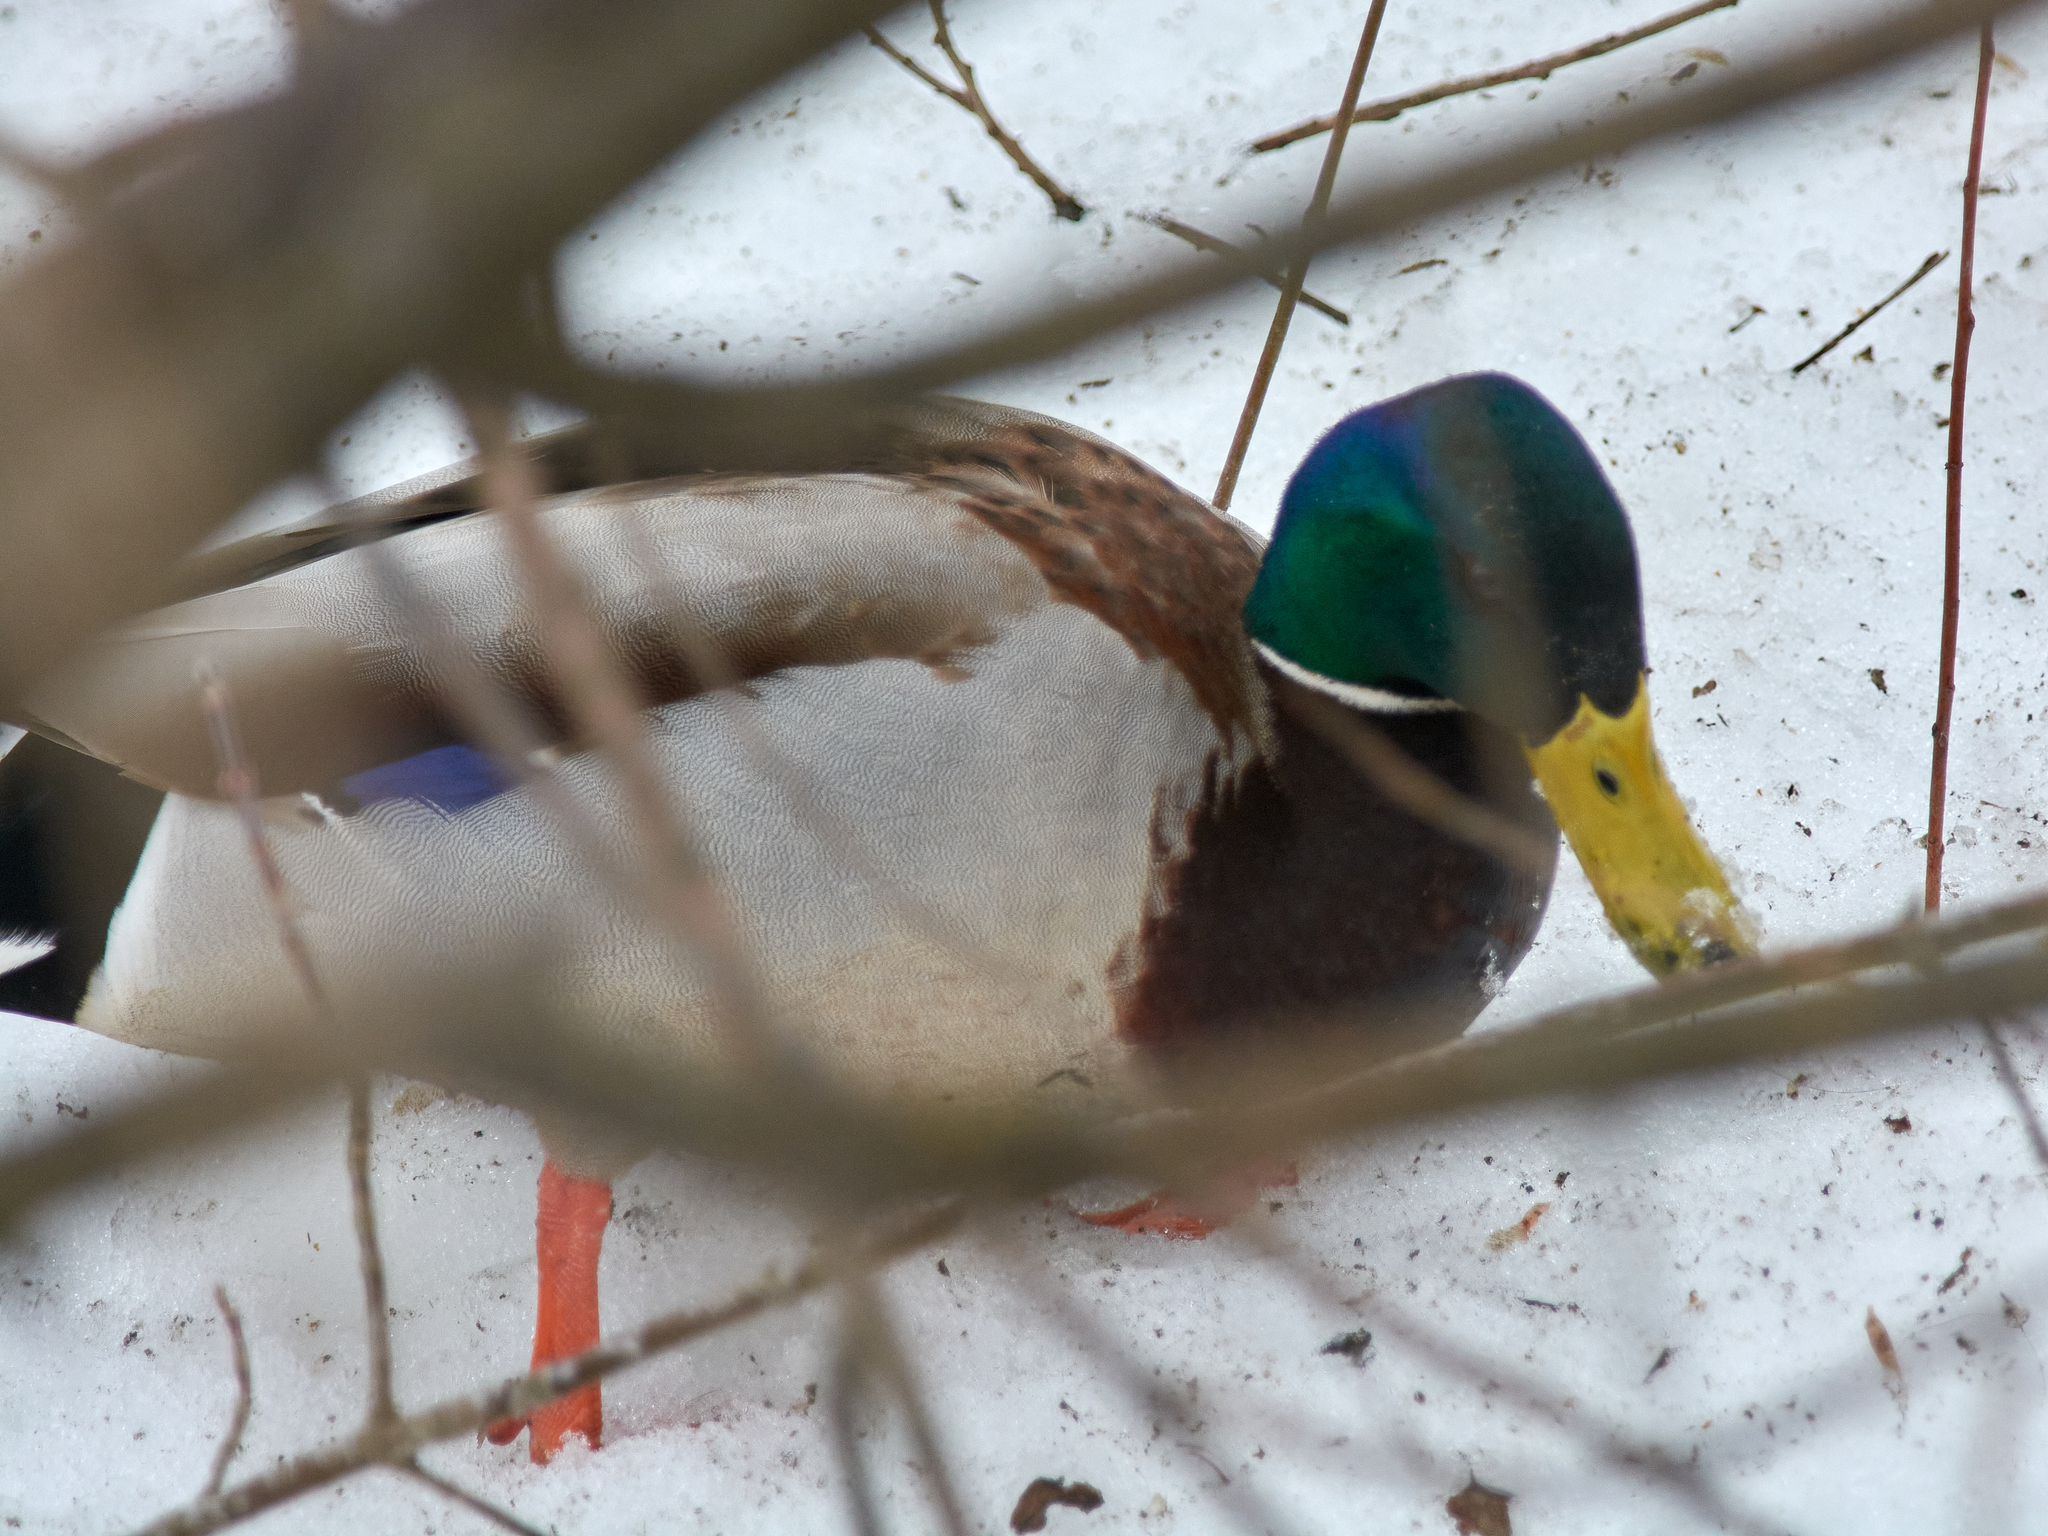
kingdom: Animalia
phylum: Chordata
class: Aves
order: Anseriformes
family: Anatidae
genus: Anas
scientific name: Anas platyrhynchos
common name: Mallard
